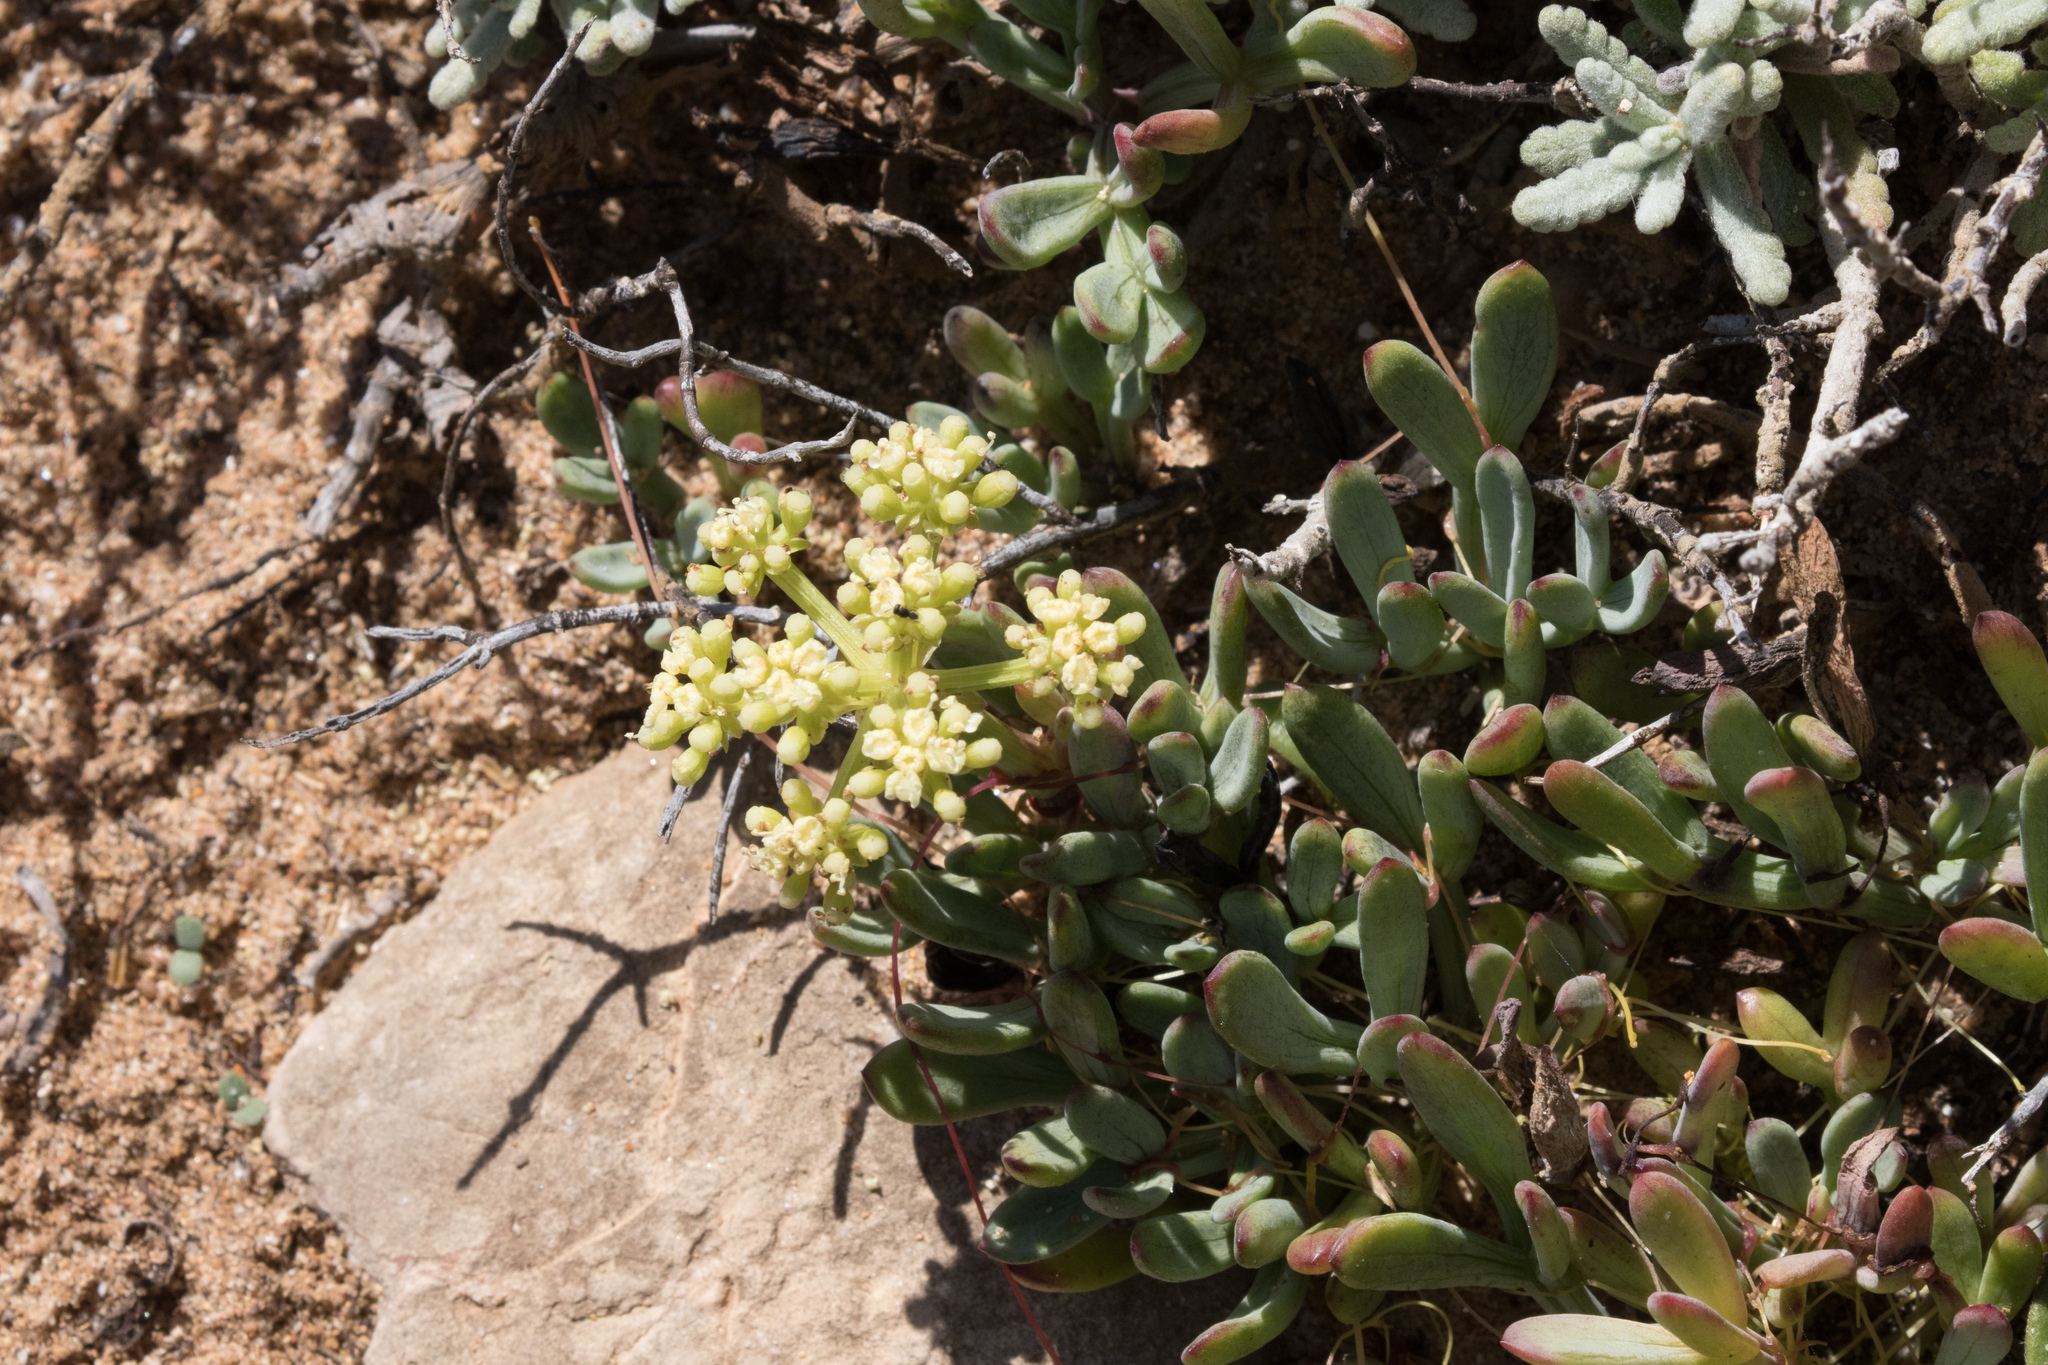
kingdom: Plantae
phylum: Tracheophyta
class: Magnoliopsida
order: Apiales
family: Apiaceae
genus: Crithmum
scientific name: Crithmum maritimum
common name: Rock samphire
